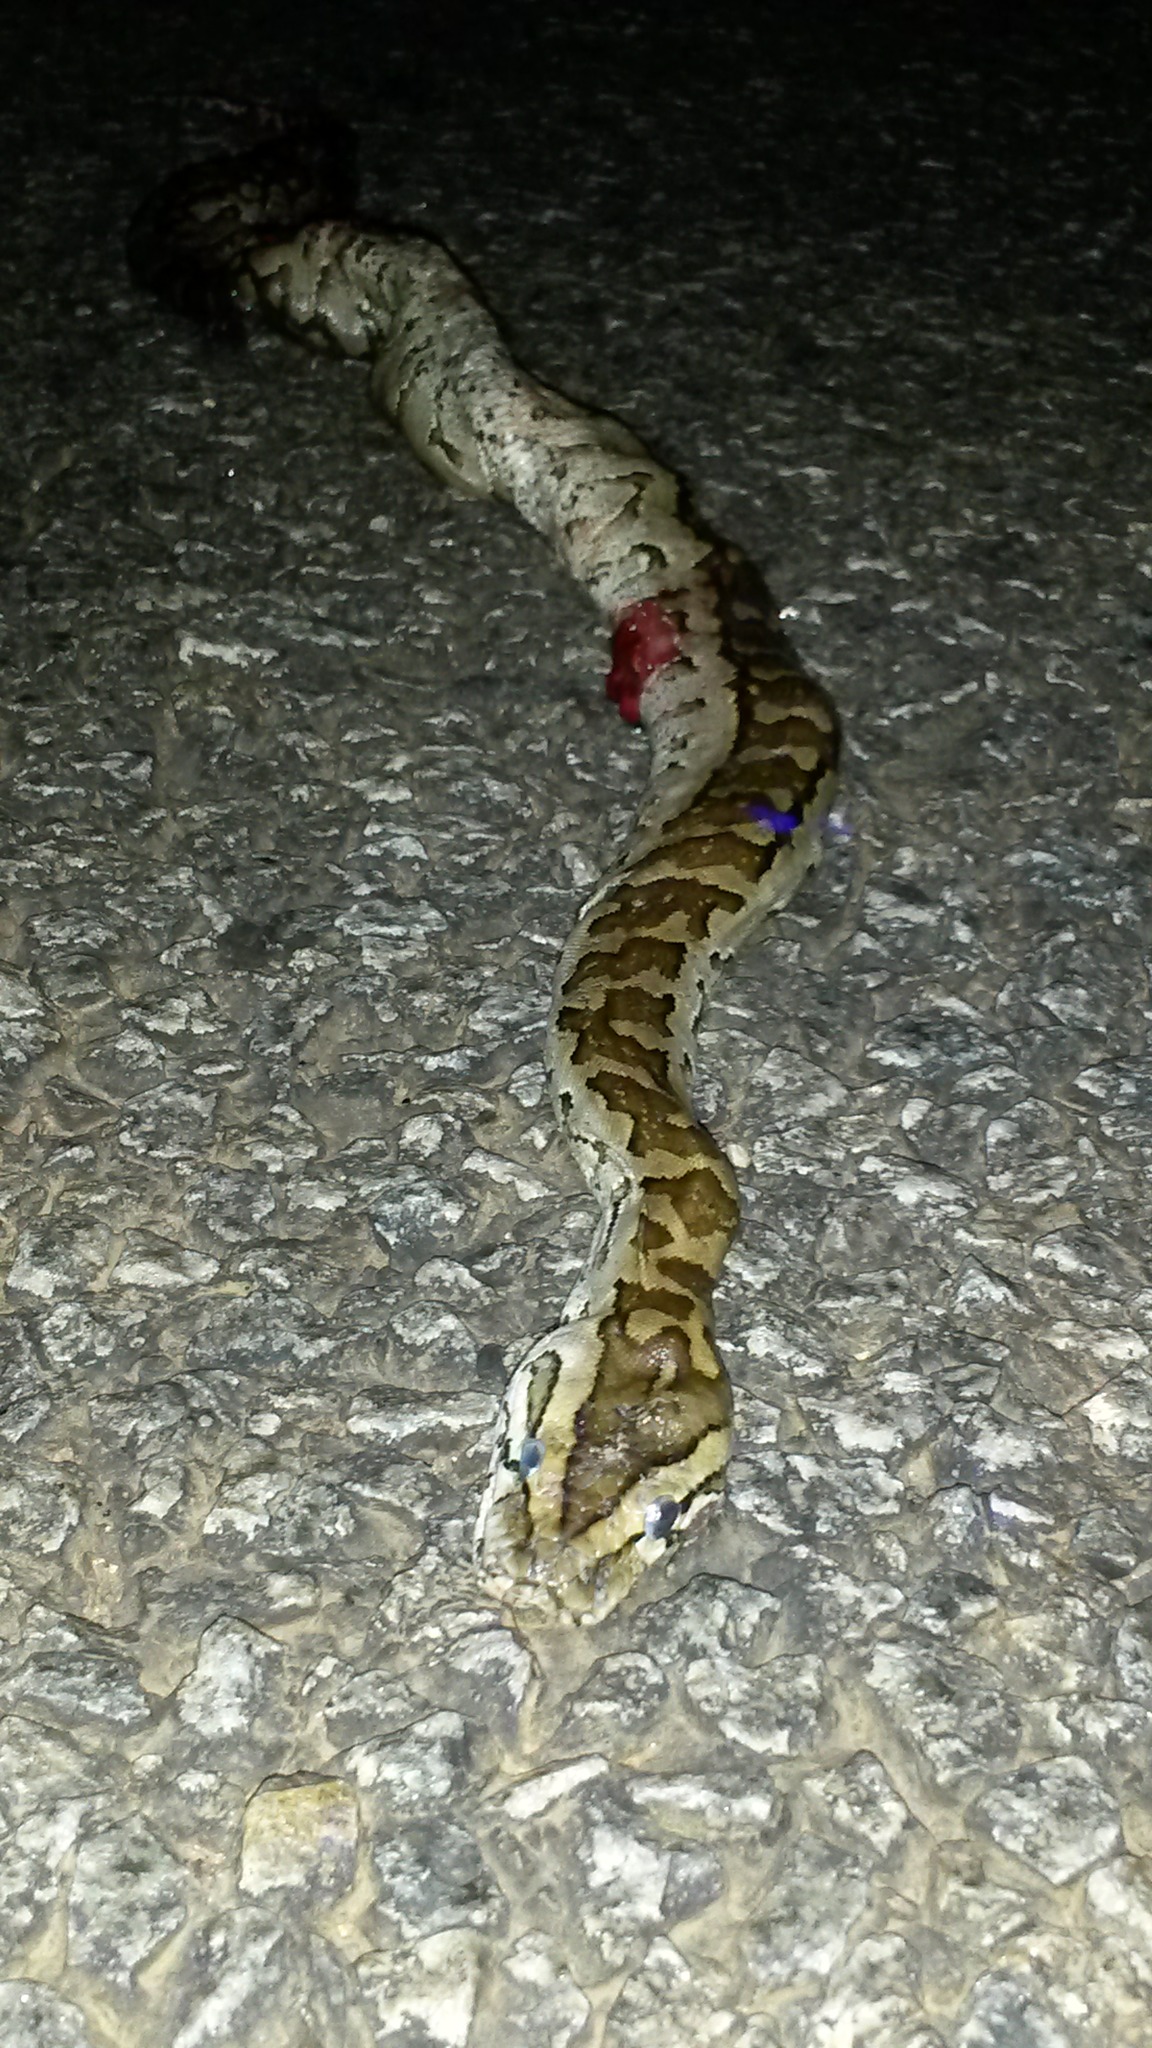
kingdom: Animalia
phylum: Chordata
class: Squamata
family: Pythonidae
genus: Python
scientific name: Python natalensis
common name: Southern african rock python
